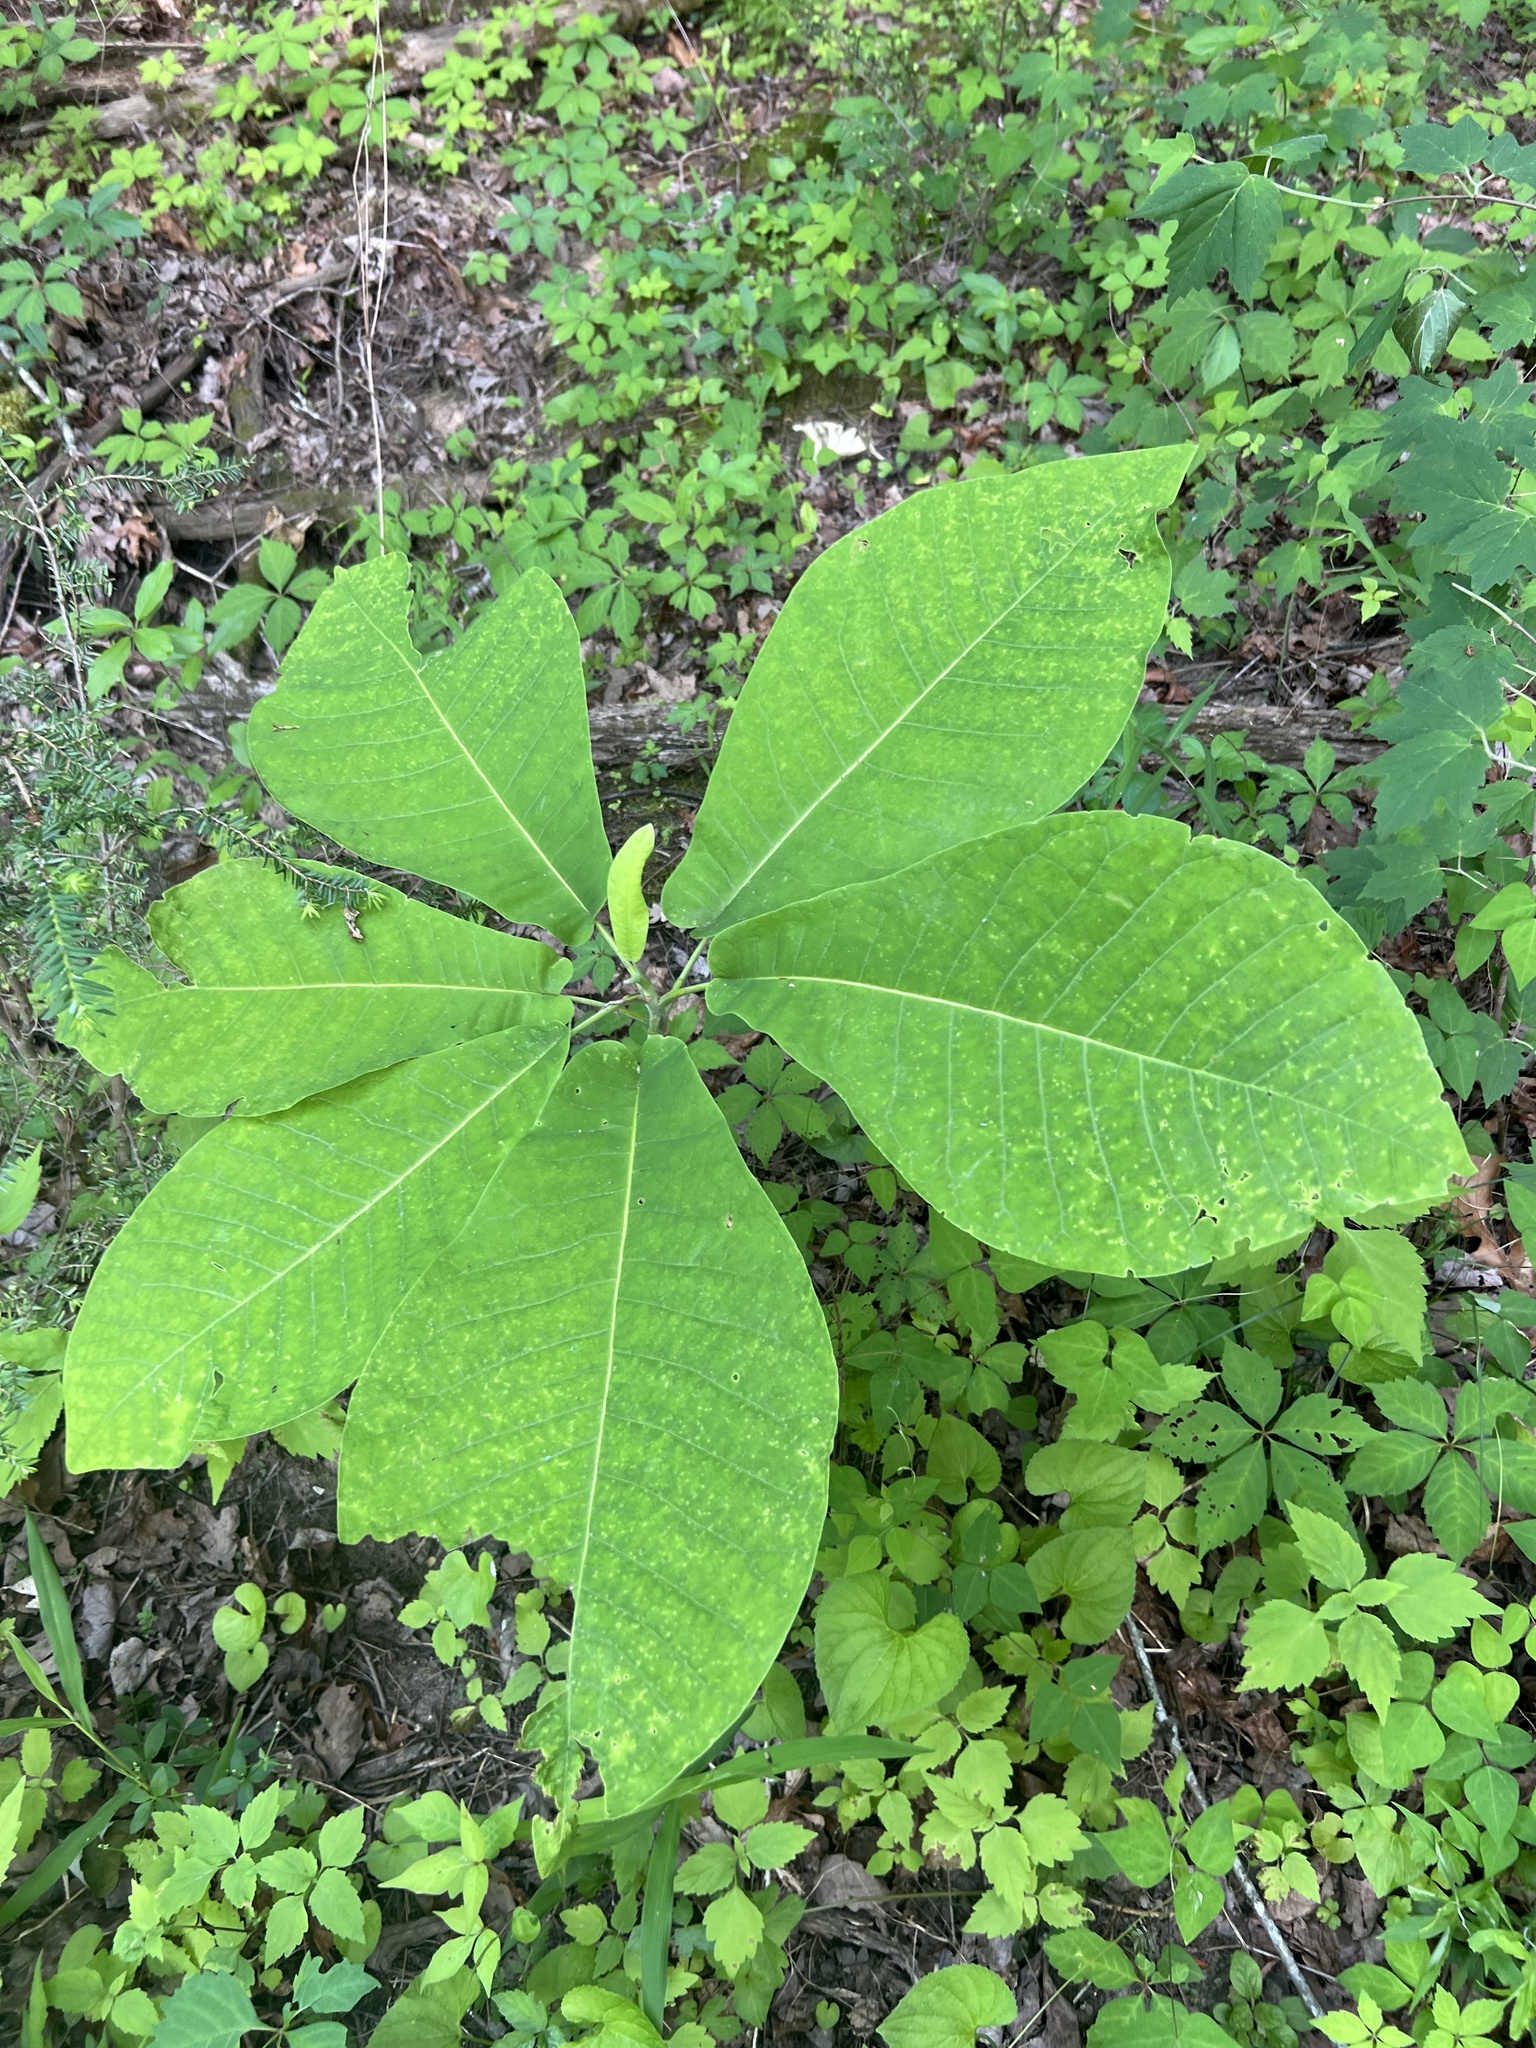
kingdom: Plantae
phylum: Tracheophyta
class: Magnoliopsida
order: Magnoliales
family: Magnoliaceae
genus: Magnolia
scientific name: Magnolia macrophylla
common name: Big-leaf magnolia
